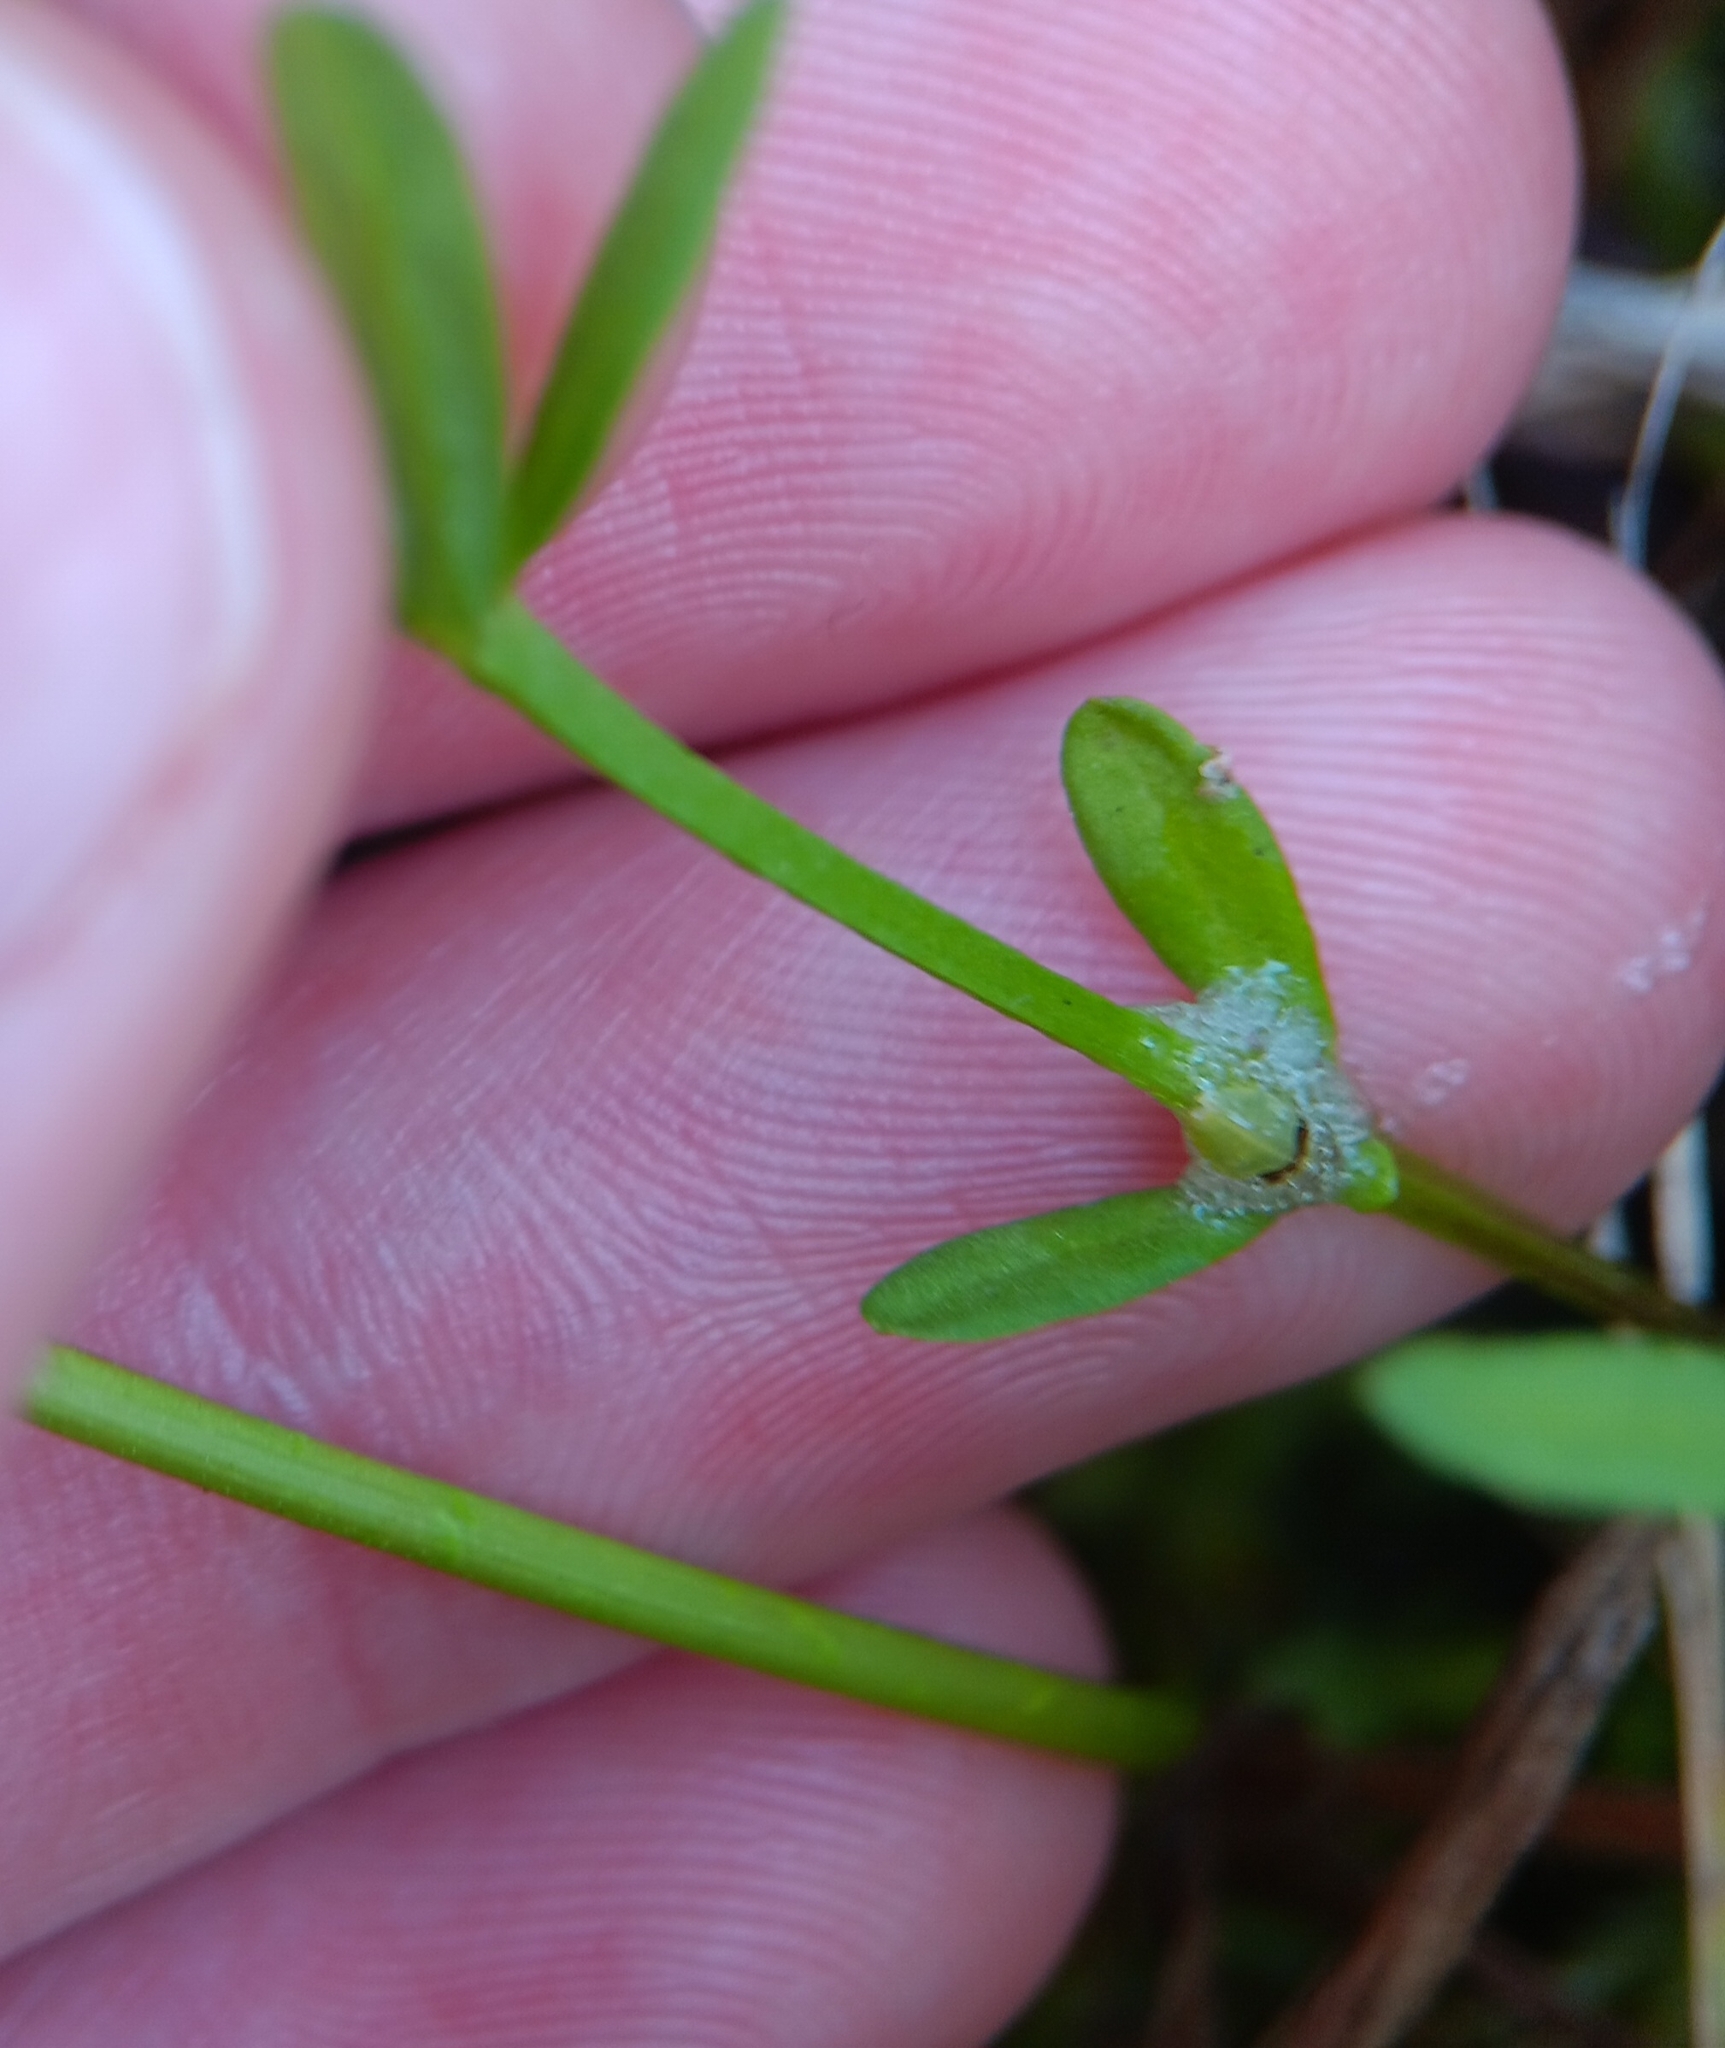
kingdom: Plantae
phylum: Tracheophyta
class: Magnoliopsida
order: Fabales
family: Polygalaceae
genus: Polygala
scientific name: Polygala cruciata
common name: Drumheads
